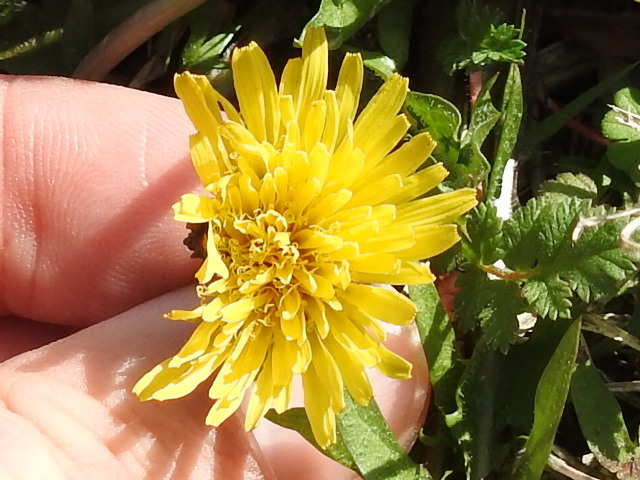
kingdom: Plantae
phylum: Tracheophyta
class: Magnoliopsida
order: Asterales
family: Asteraceae
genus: Taraxacum
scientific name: Taraxacum officinale
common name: Common dandelion
